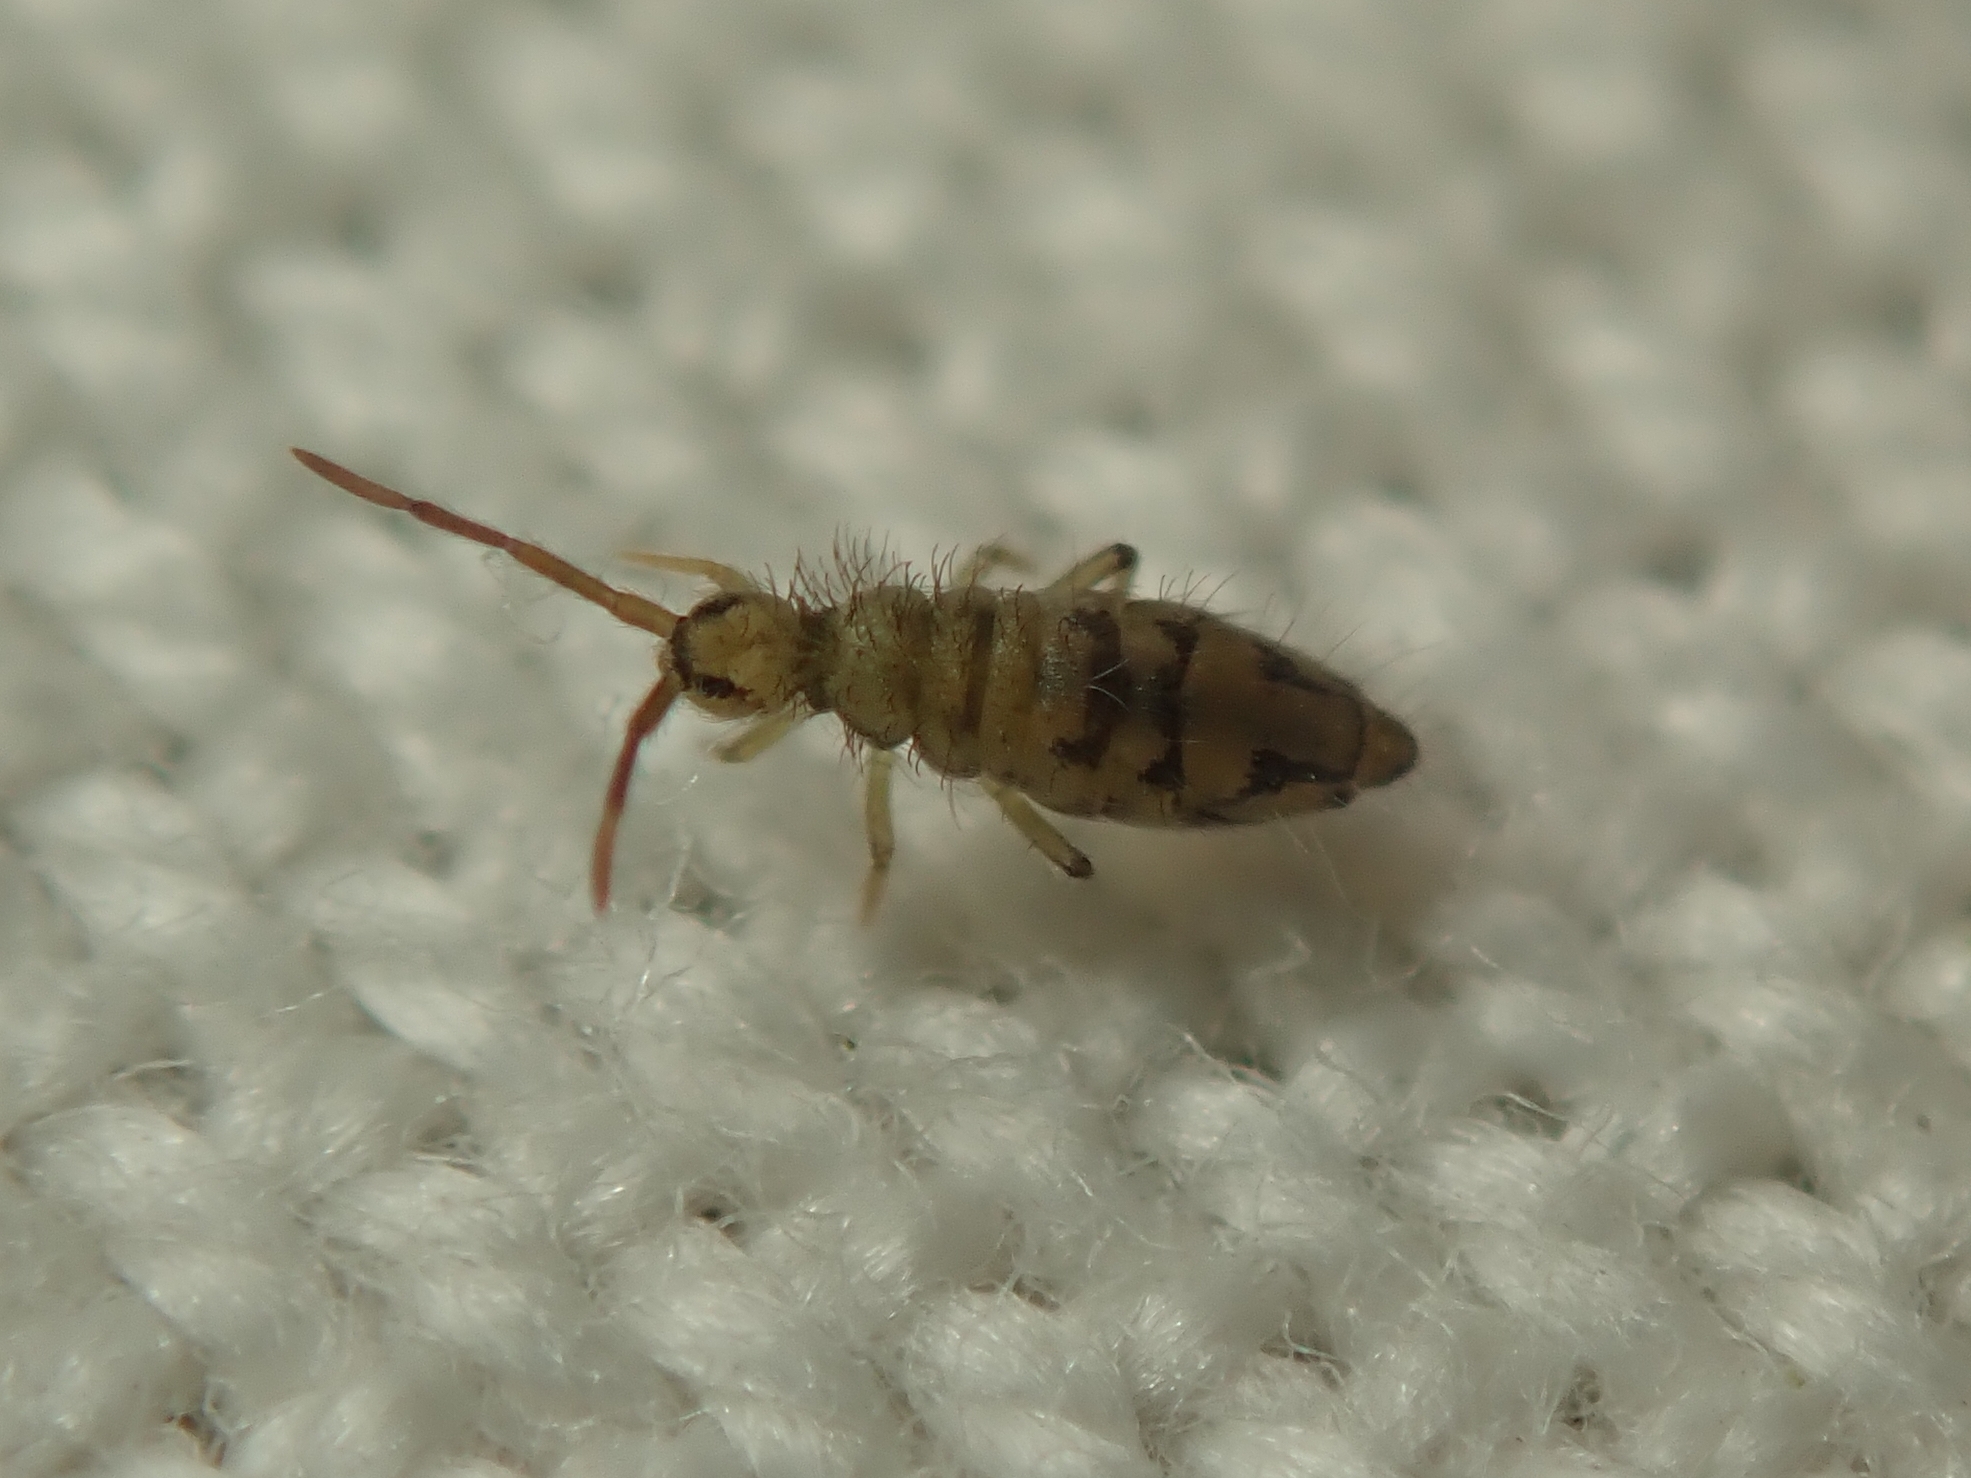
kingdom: Animalia
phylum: Arthropoda
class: Collembola
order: Entomobryomorpha
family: Entomobryidae
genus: Entomobrya
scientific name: Entomobrya nivalis
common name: Cosmopolitan springtail
